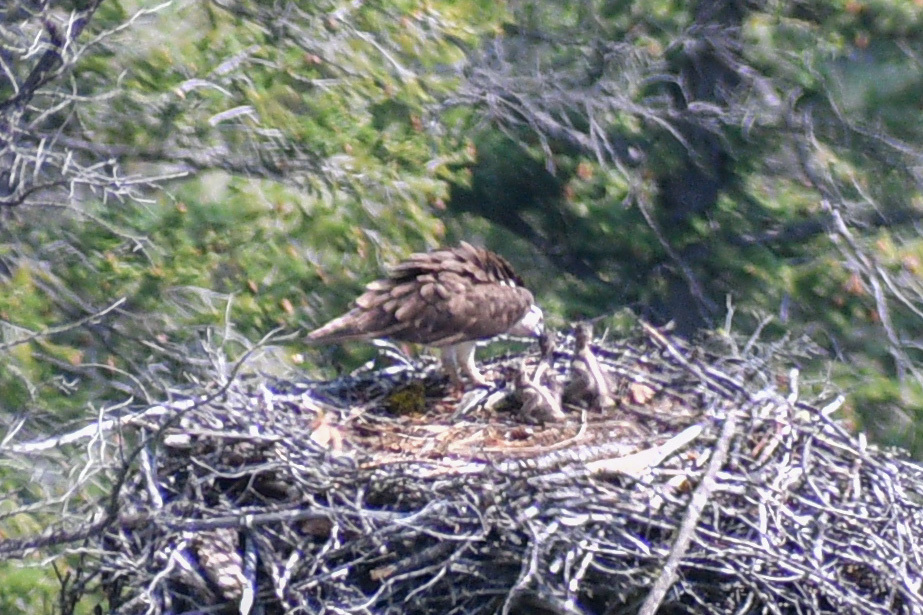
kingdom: Animalia
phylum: Chordata
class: Aves
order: Accipitriformes
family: Pandionidae
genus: Pandion
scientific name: Pandion haliaetus
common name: Osprey
